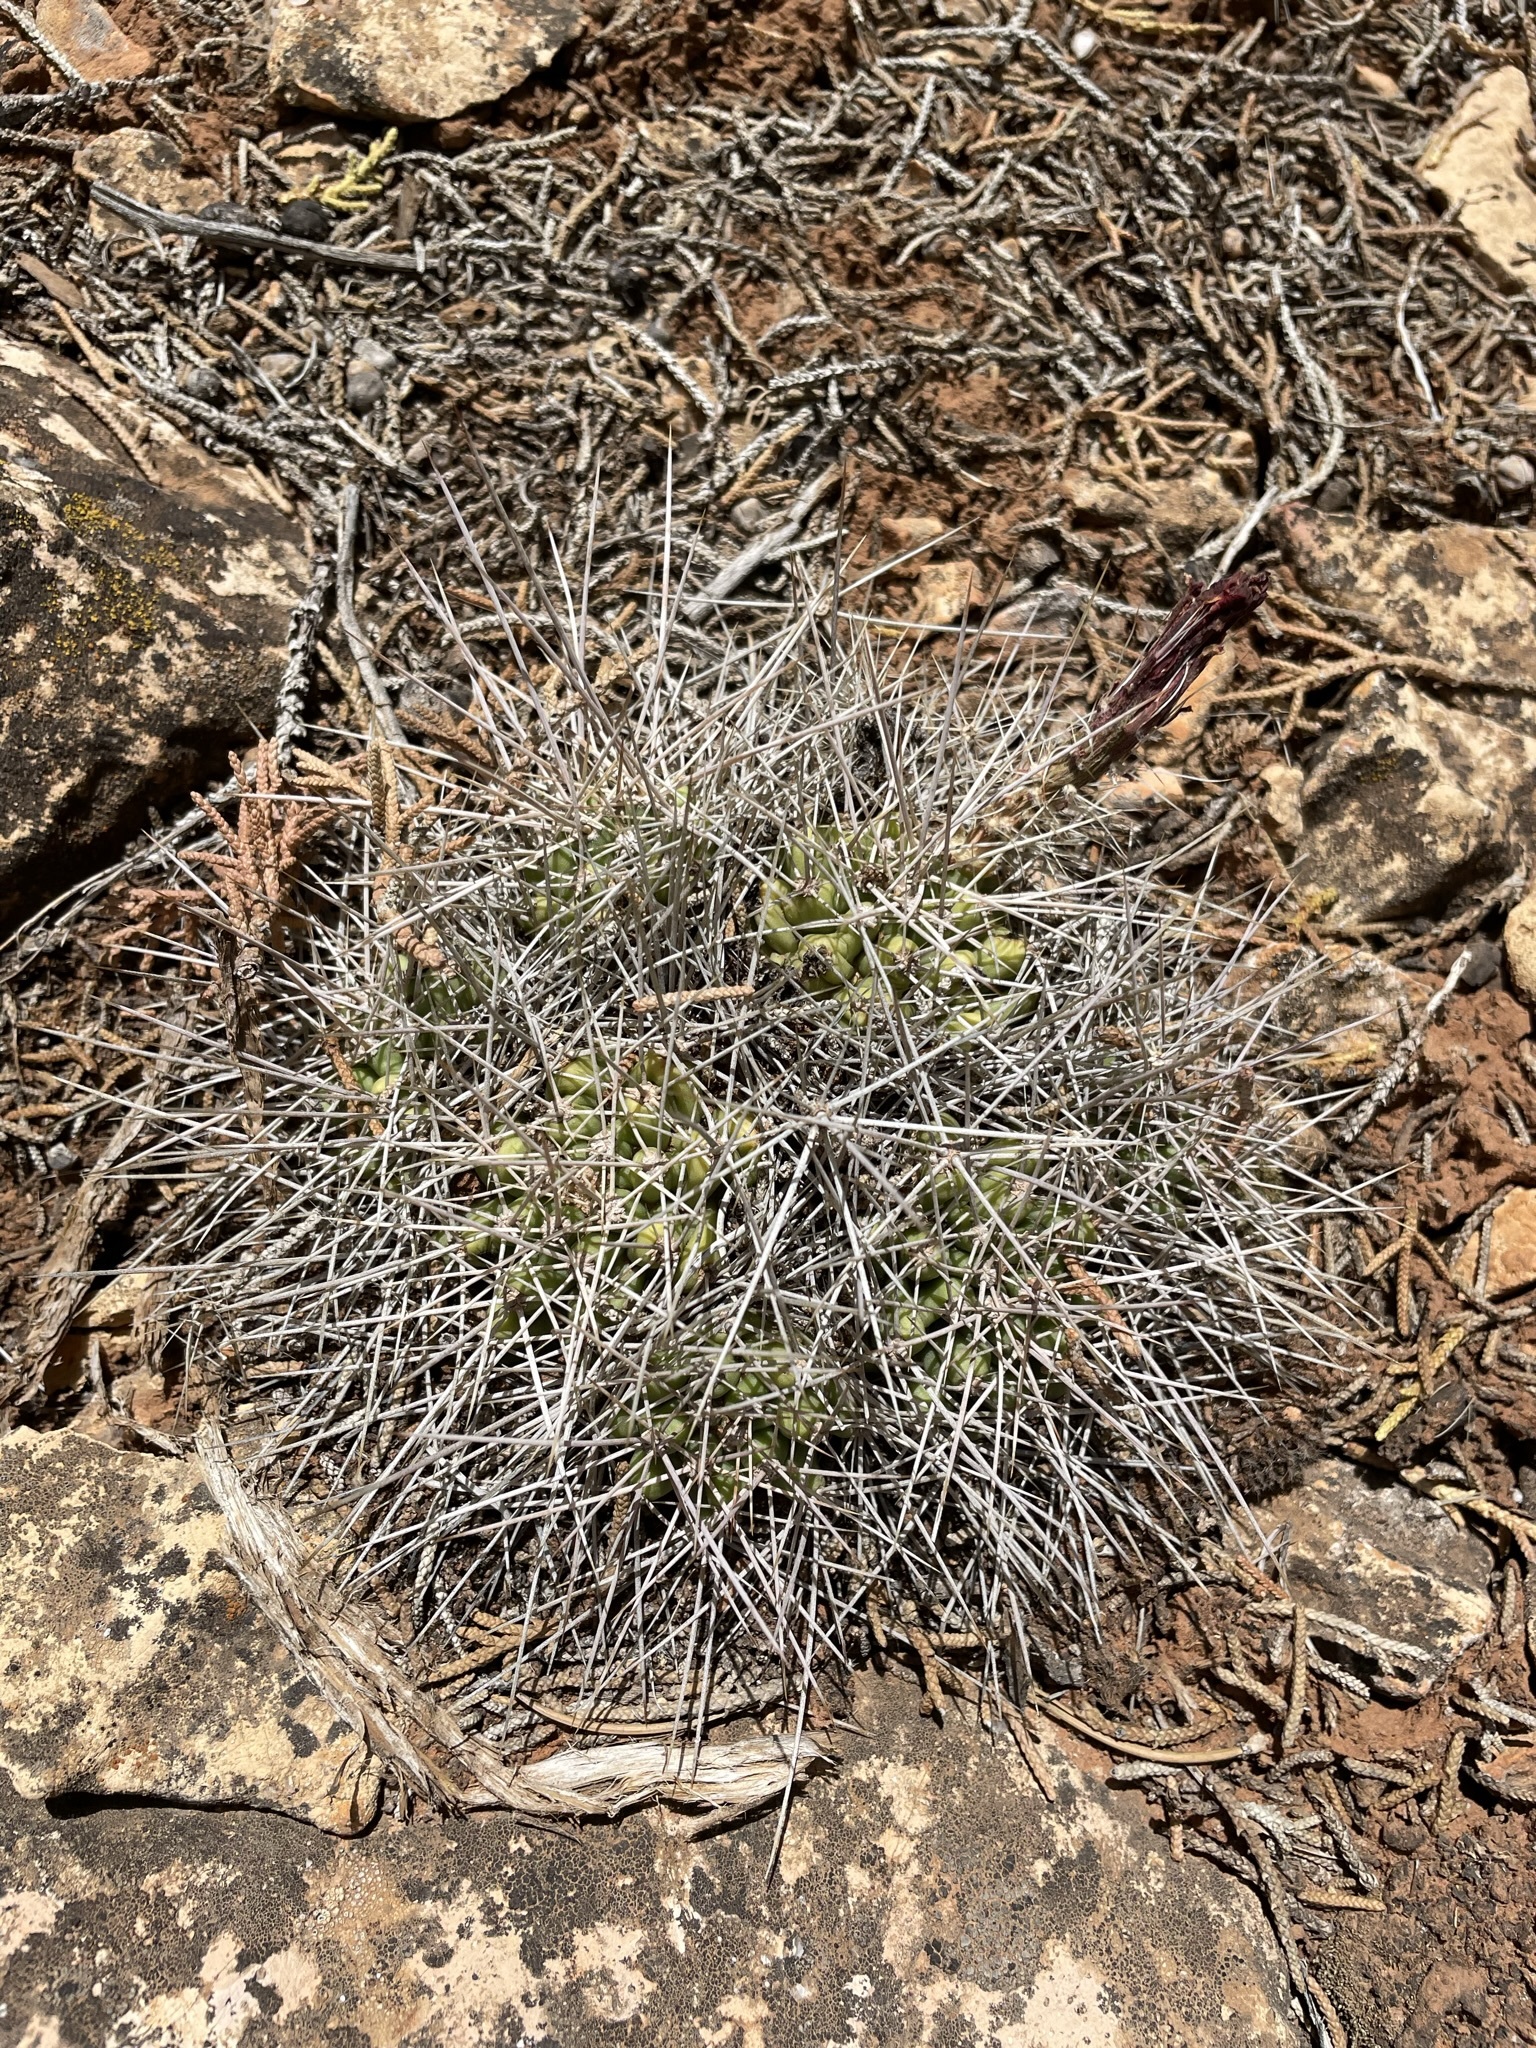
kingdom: Plantae
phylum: Tracheophyta
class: Magnoliopsida
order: Caryophyllales
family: Cactaceae
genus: Echinocereus
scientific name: Echinocereus triglochidiatus
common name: Claretcup hedgehog
